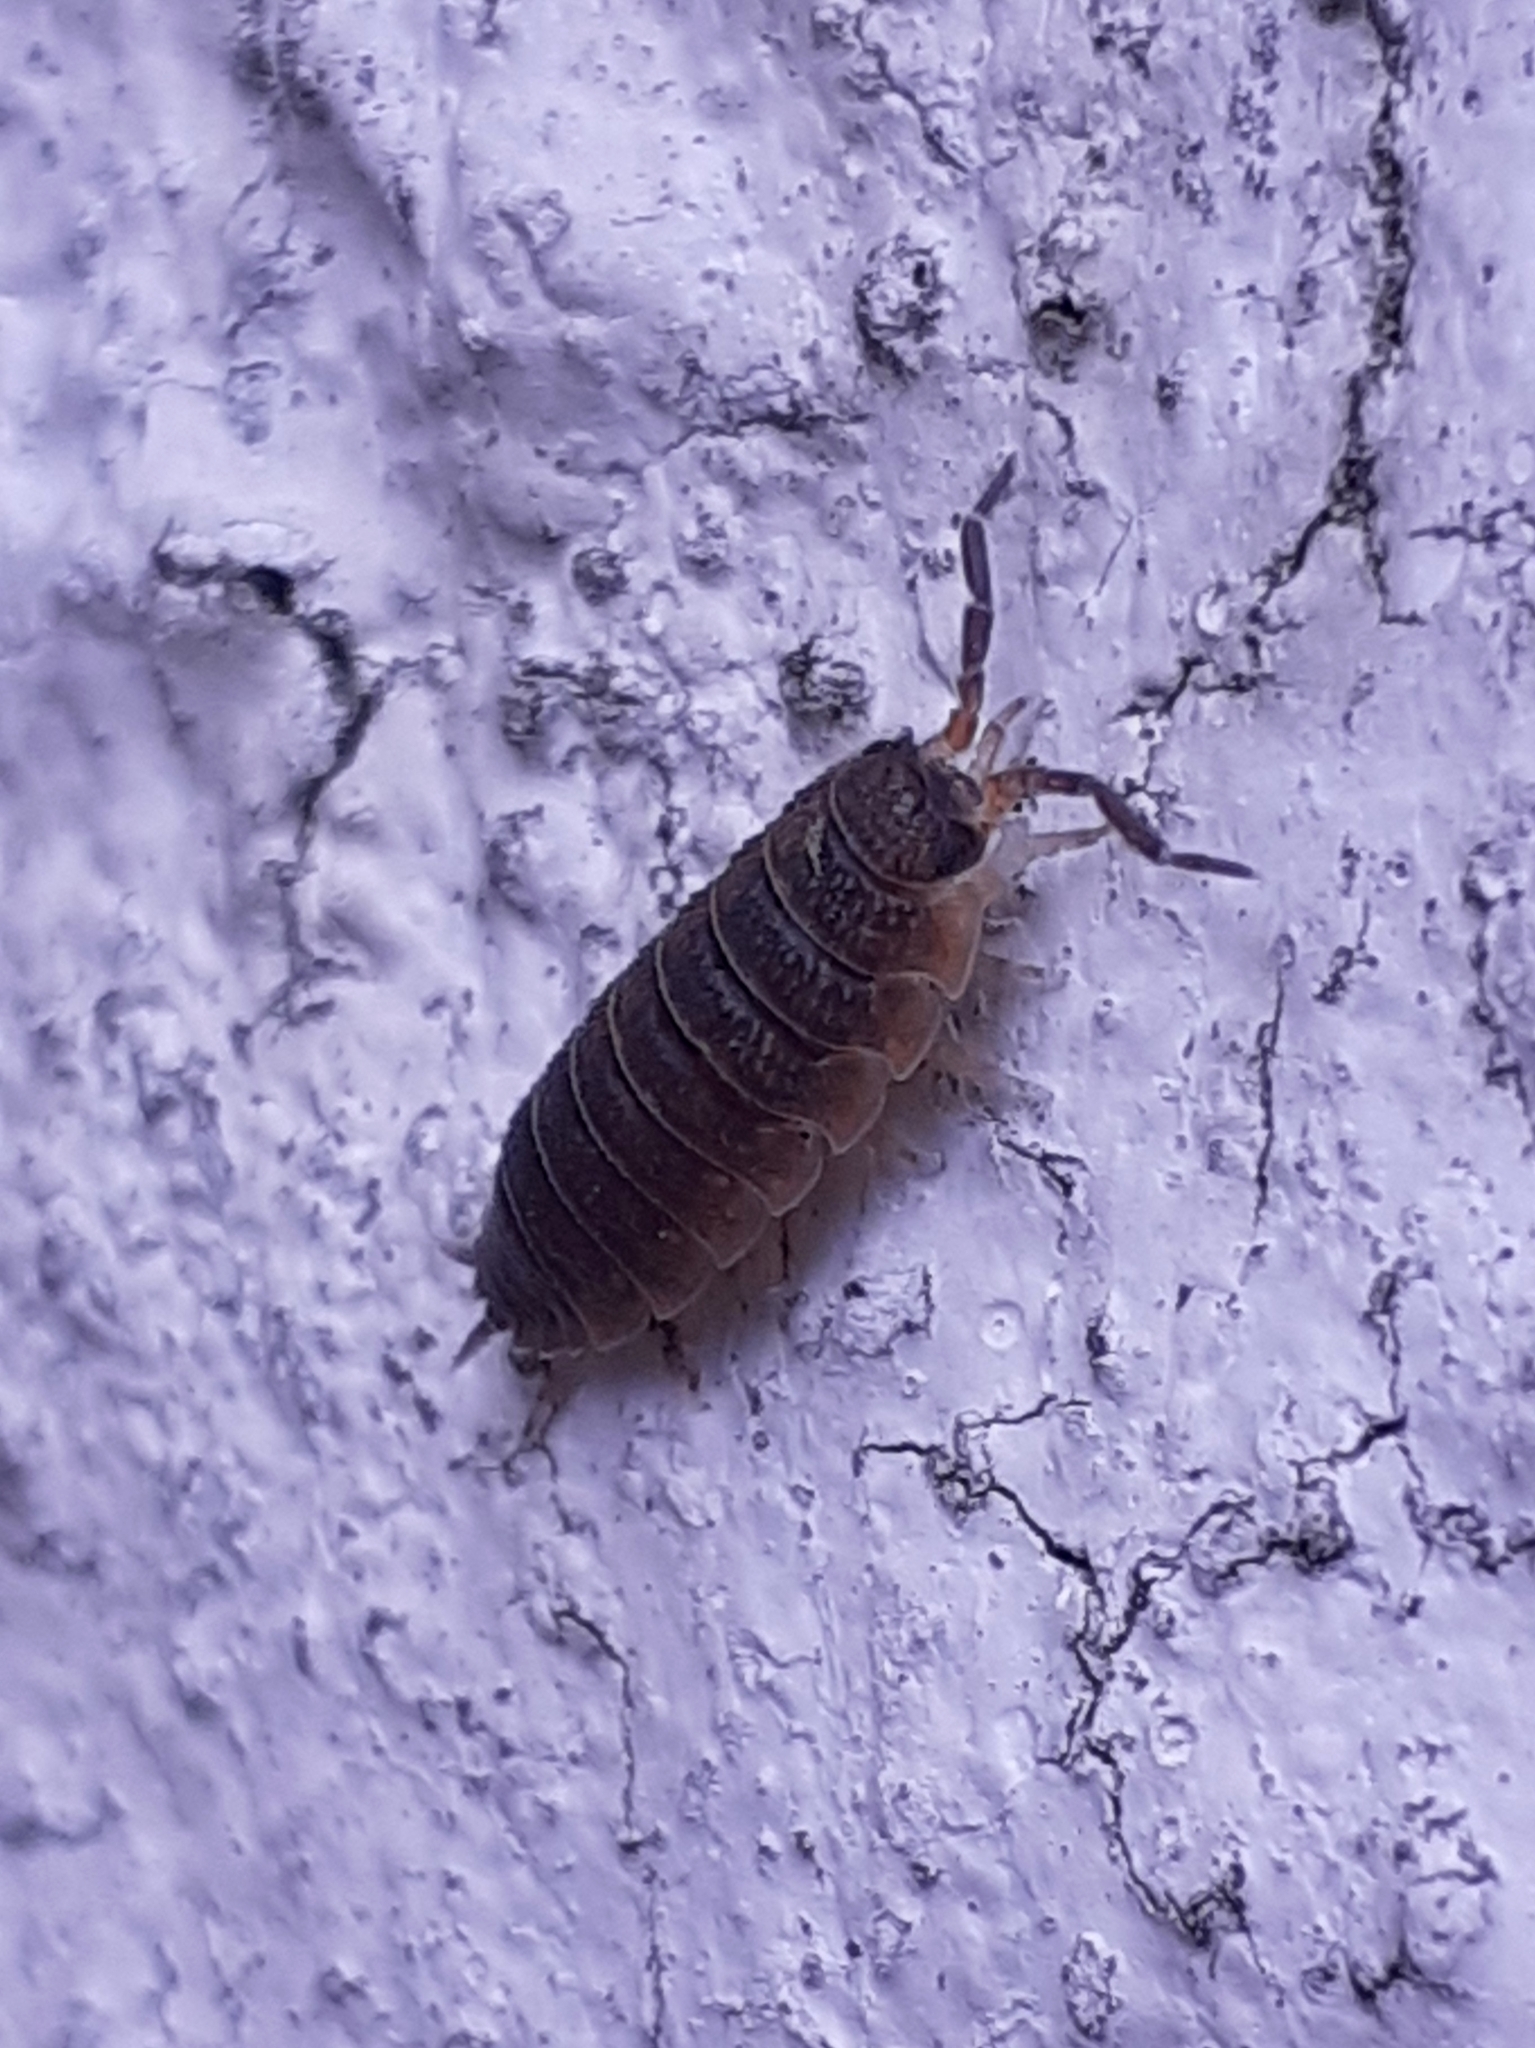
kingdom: Animalia
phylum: Arthropoda
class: Malacostraca
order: Isopoda
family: Porcellionidae
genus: Porcellio
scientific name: Porcellio scaber
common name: Common rough woodlouse
